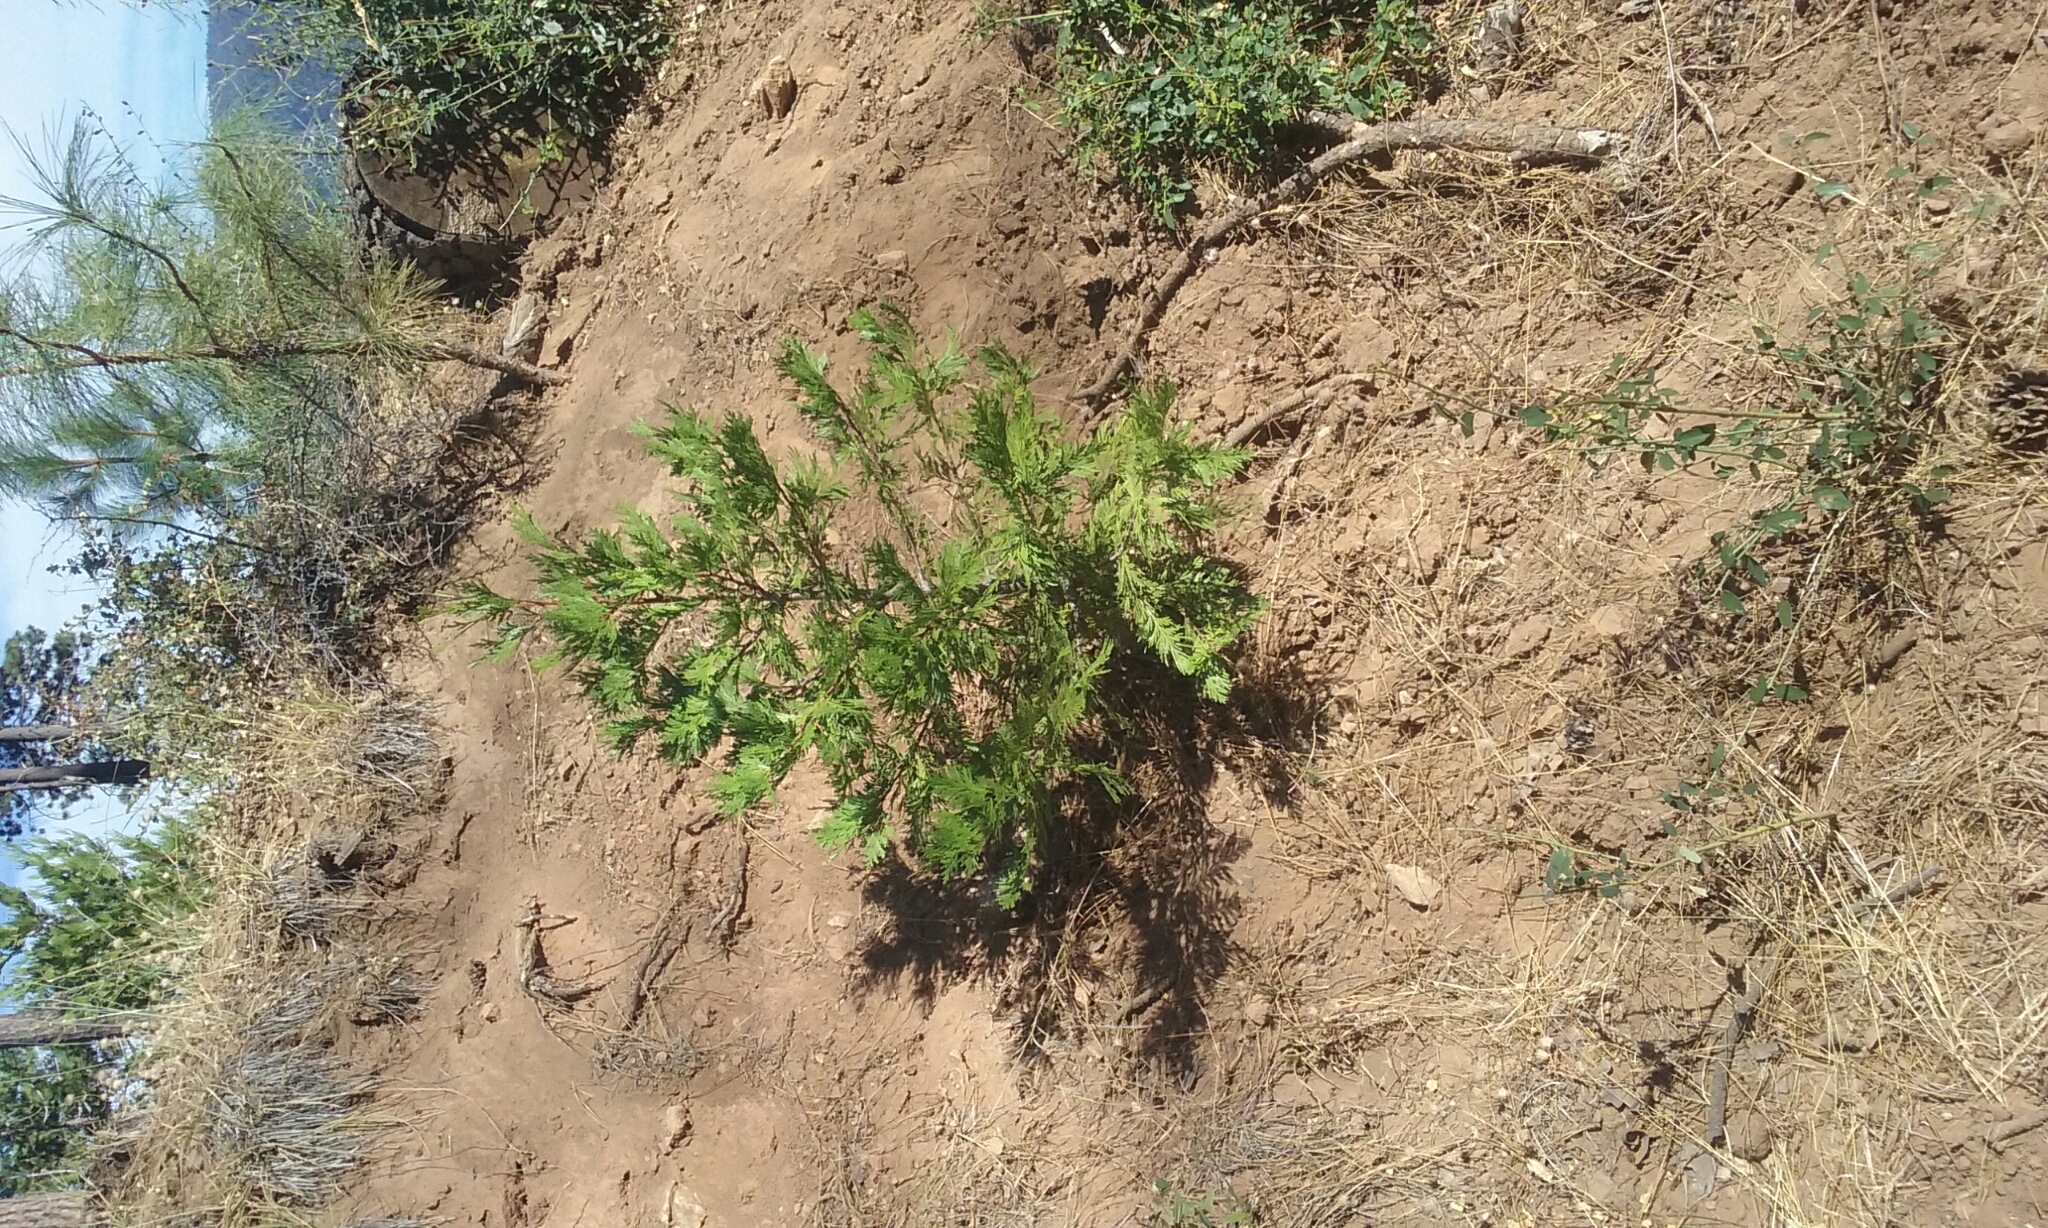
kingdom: Plantae
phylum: Tracheophyta
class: Pinopsida
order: Pinales
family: Cupressaceae
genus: Calocedrus
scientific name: Calocedrus decurrens
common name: Californian incense-cedar
